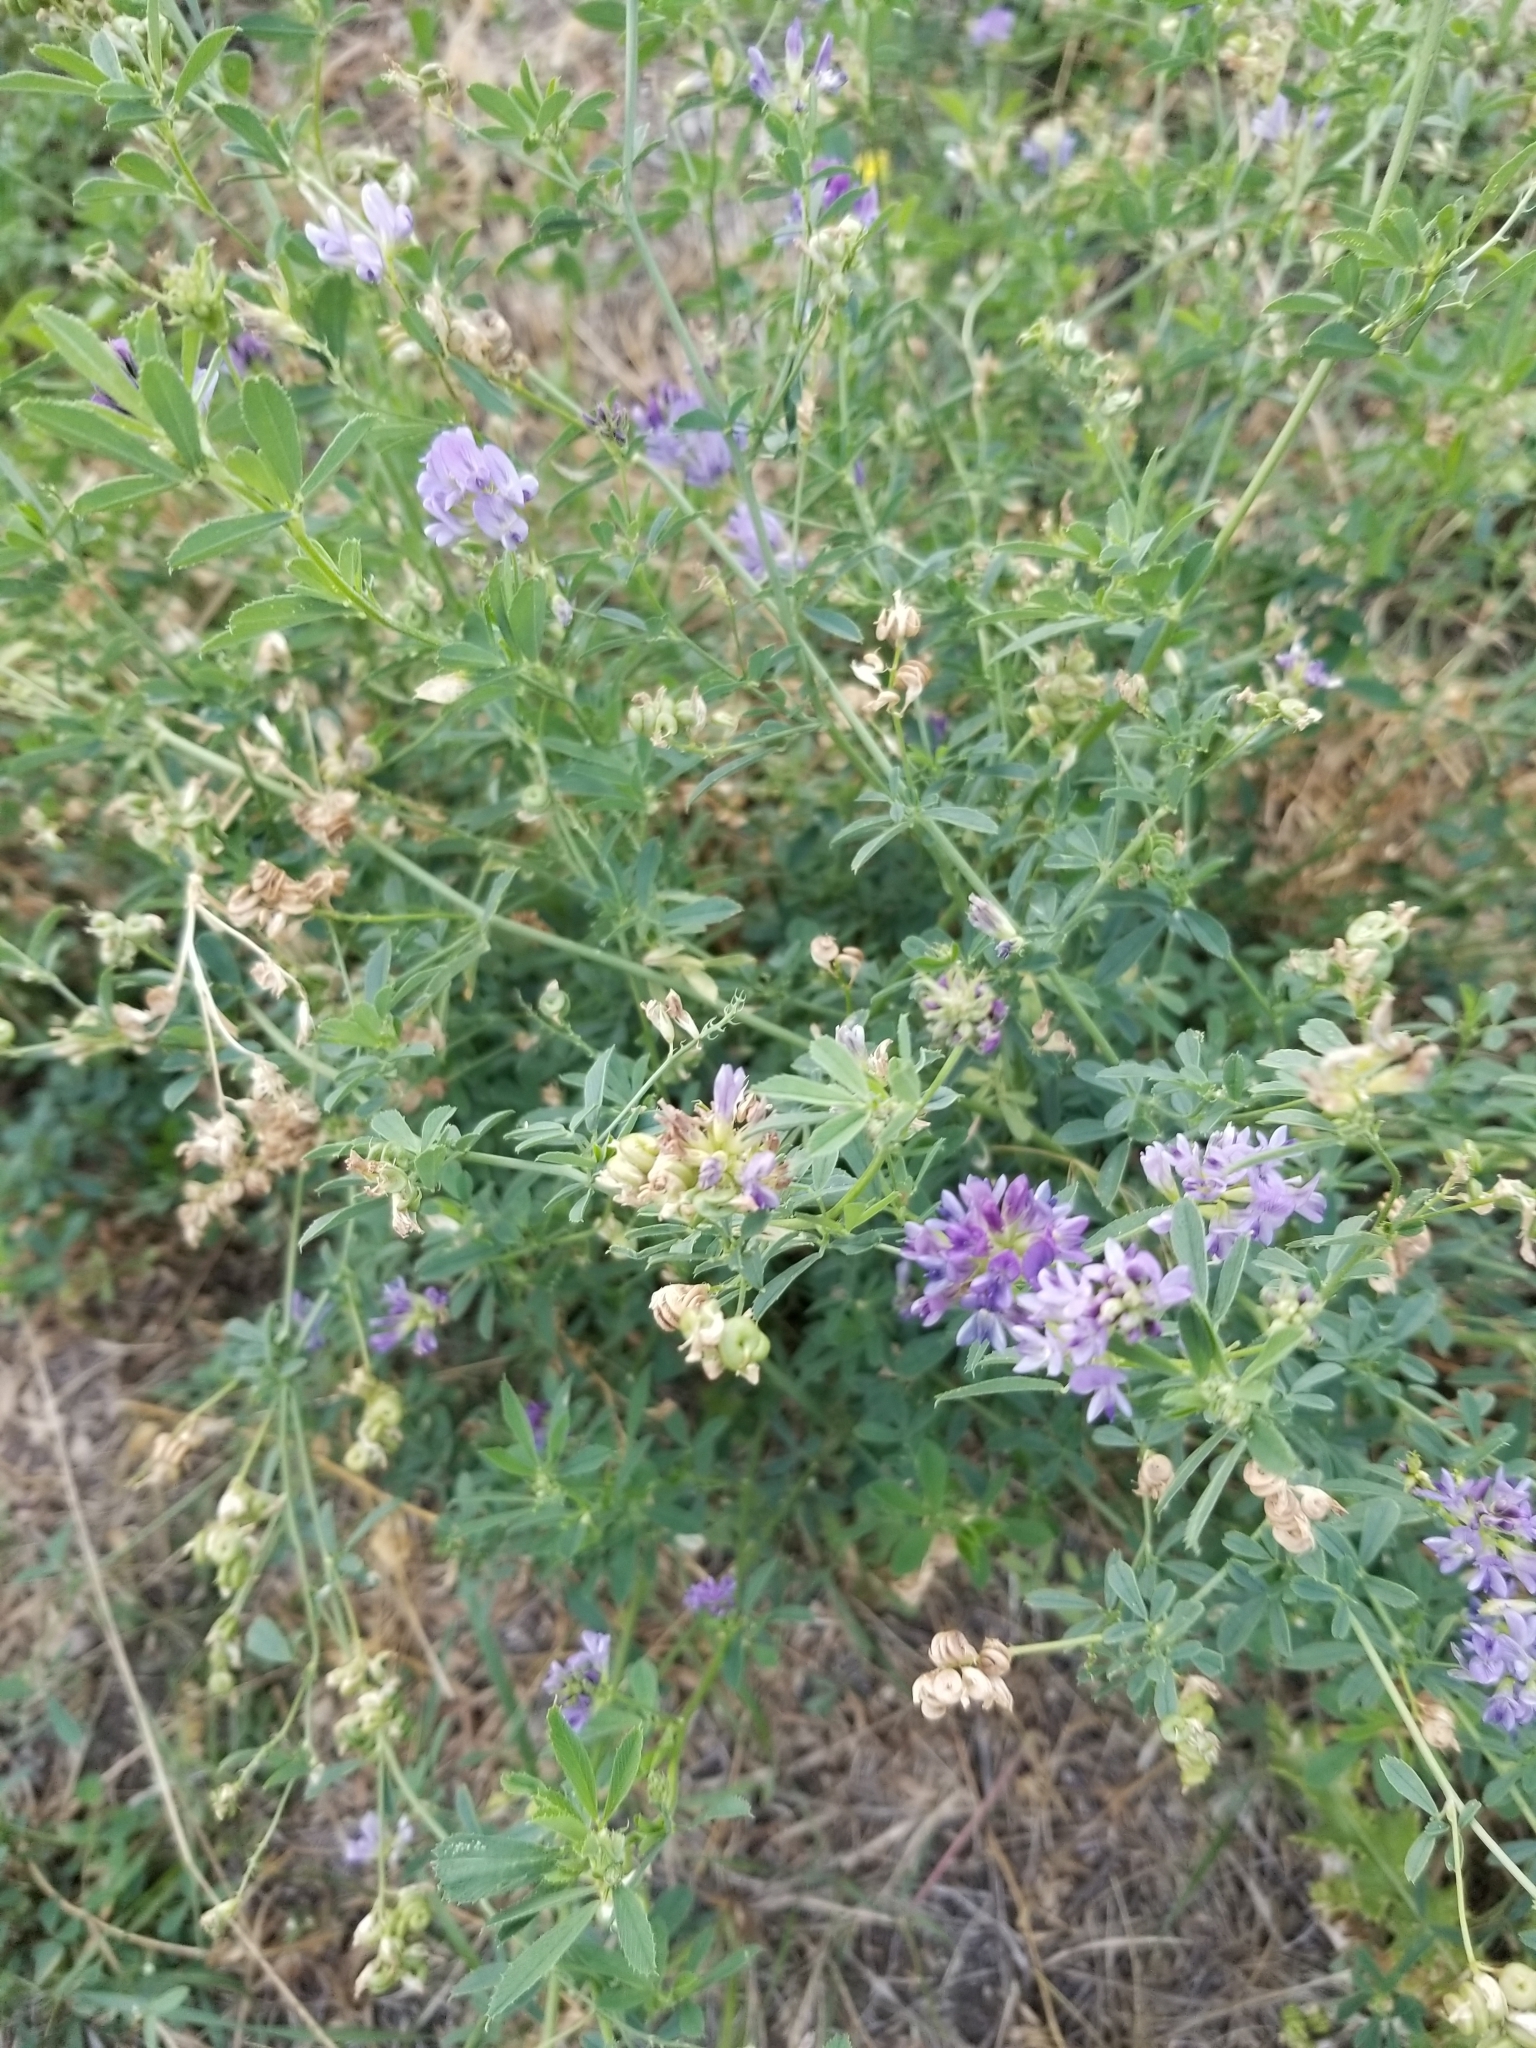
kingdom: Plantae
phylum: Tracheophyta
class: Magnoliopsida
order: Fabales
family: Fabaceae
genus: Medicago
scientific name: Medicago sativa
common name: Alfalfa
